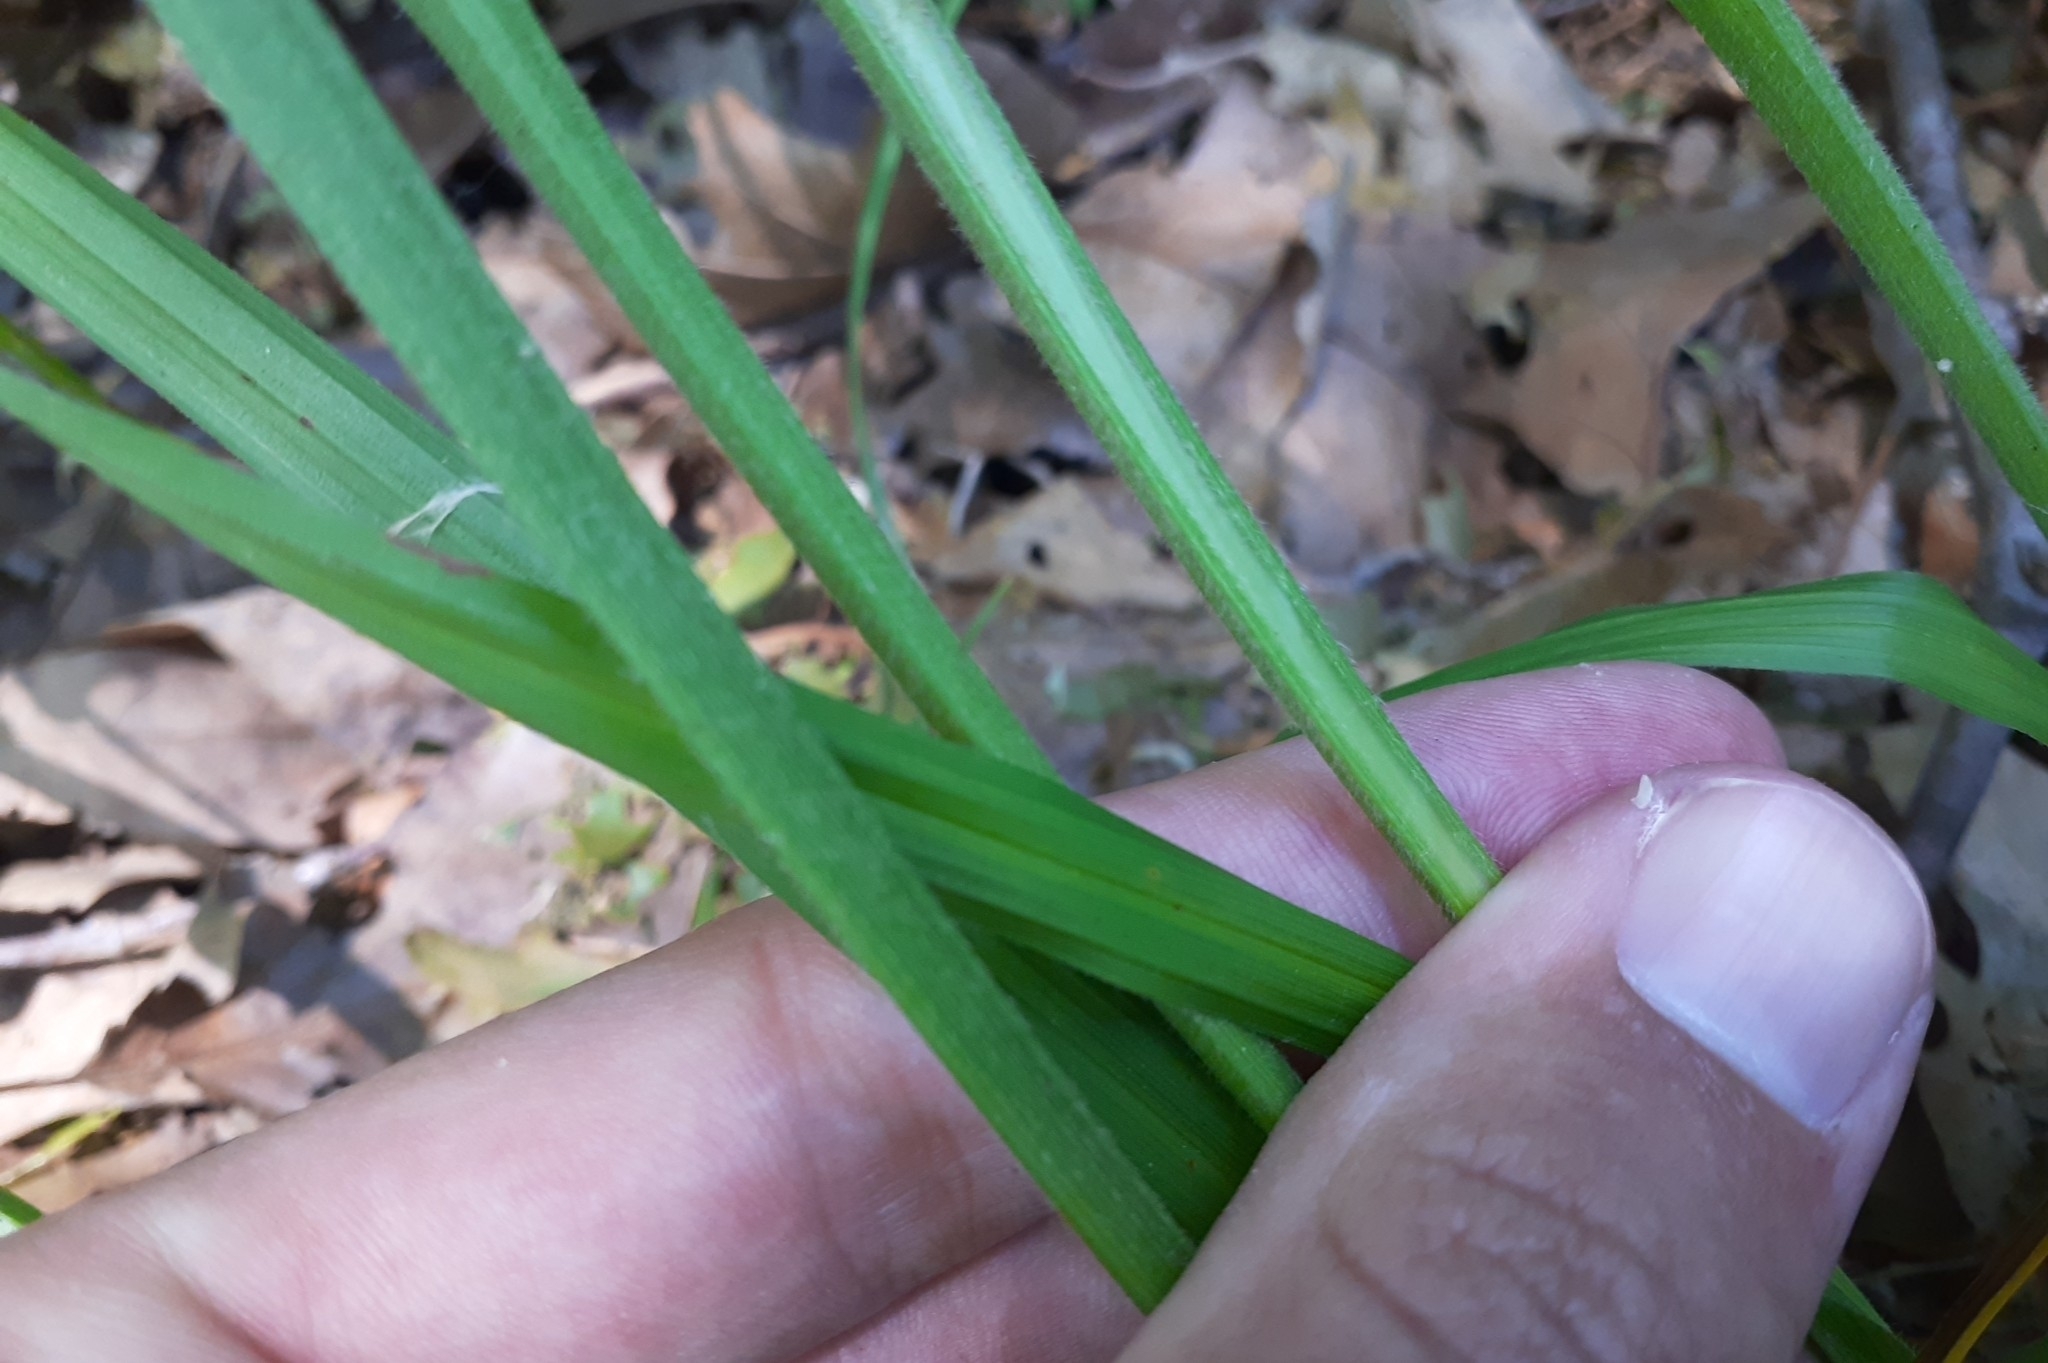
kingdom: Plantae
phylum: Tracheophyta
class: Liliopsida
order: Poales
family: Cyperaceae
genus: Carex
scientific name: Carex formosa
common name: Awnless graceful sedge
